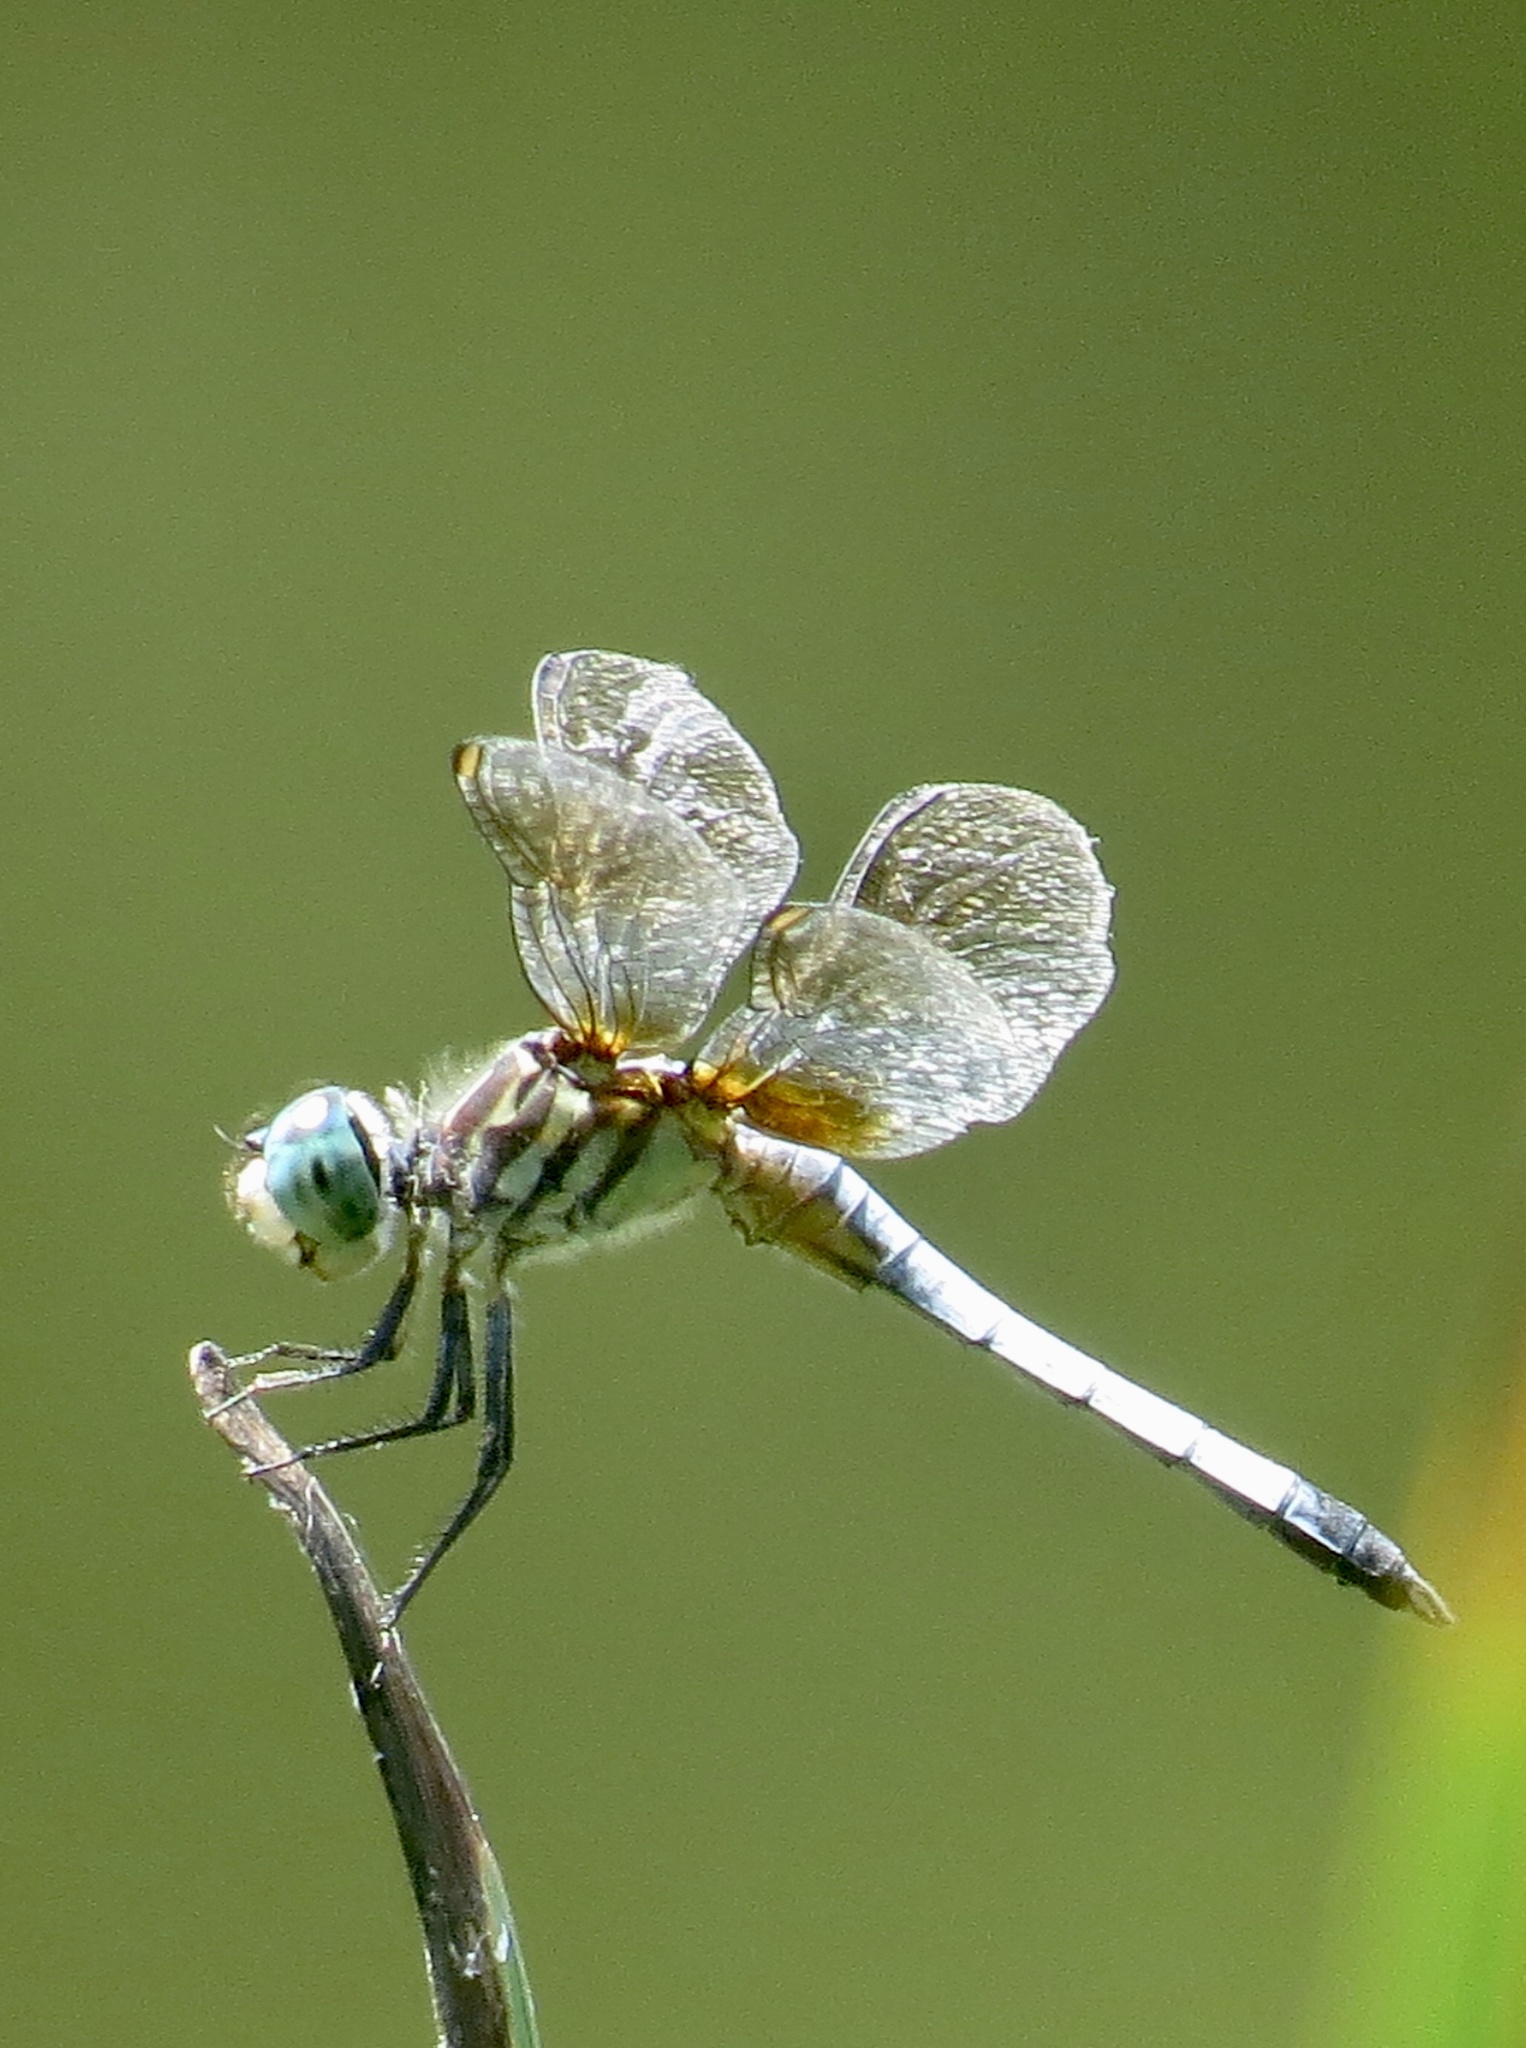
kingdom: Animalia
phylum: Arthropoda
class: Insecta
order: Odonata
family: Libellulidae
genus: Pachydiplax
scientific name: Pachydiplax longipennis
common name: Blue dasher
